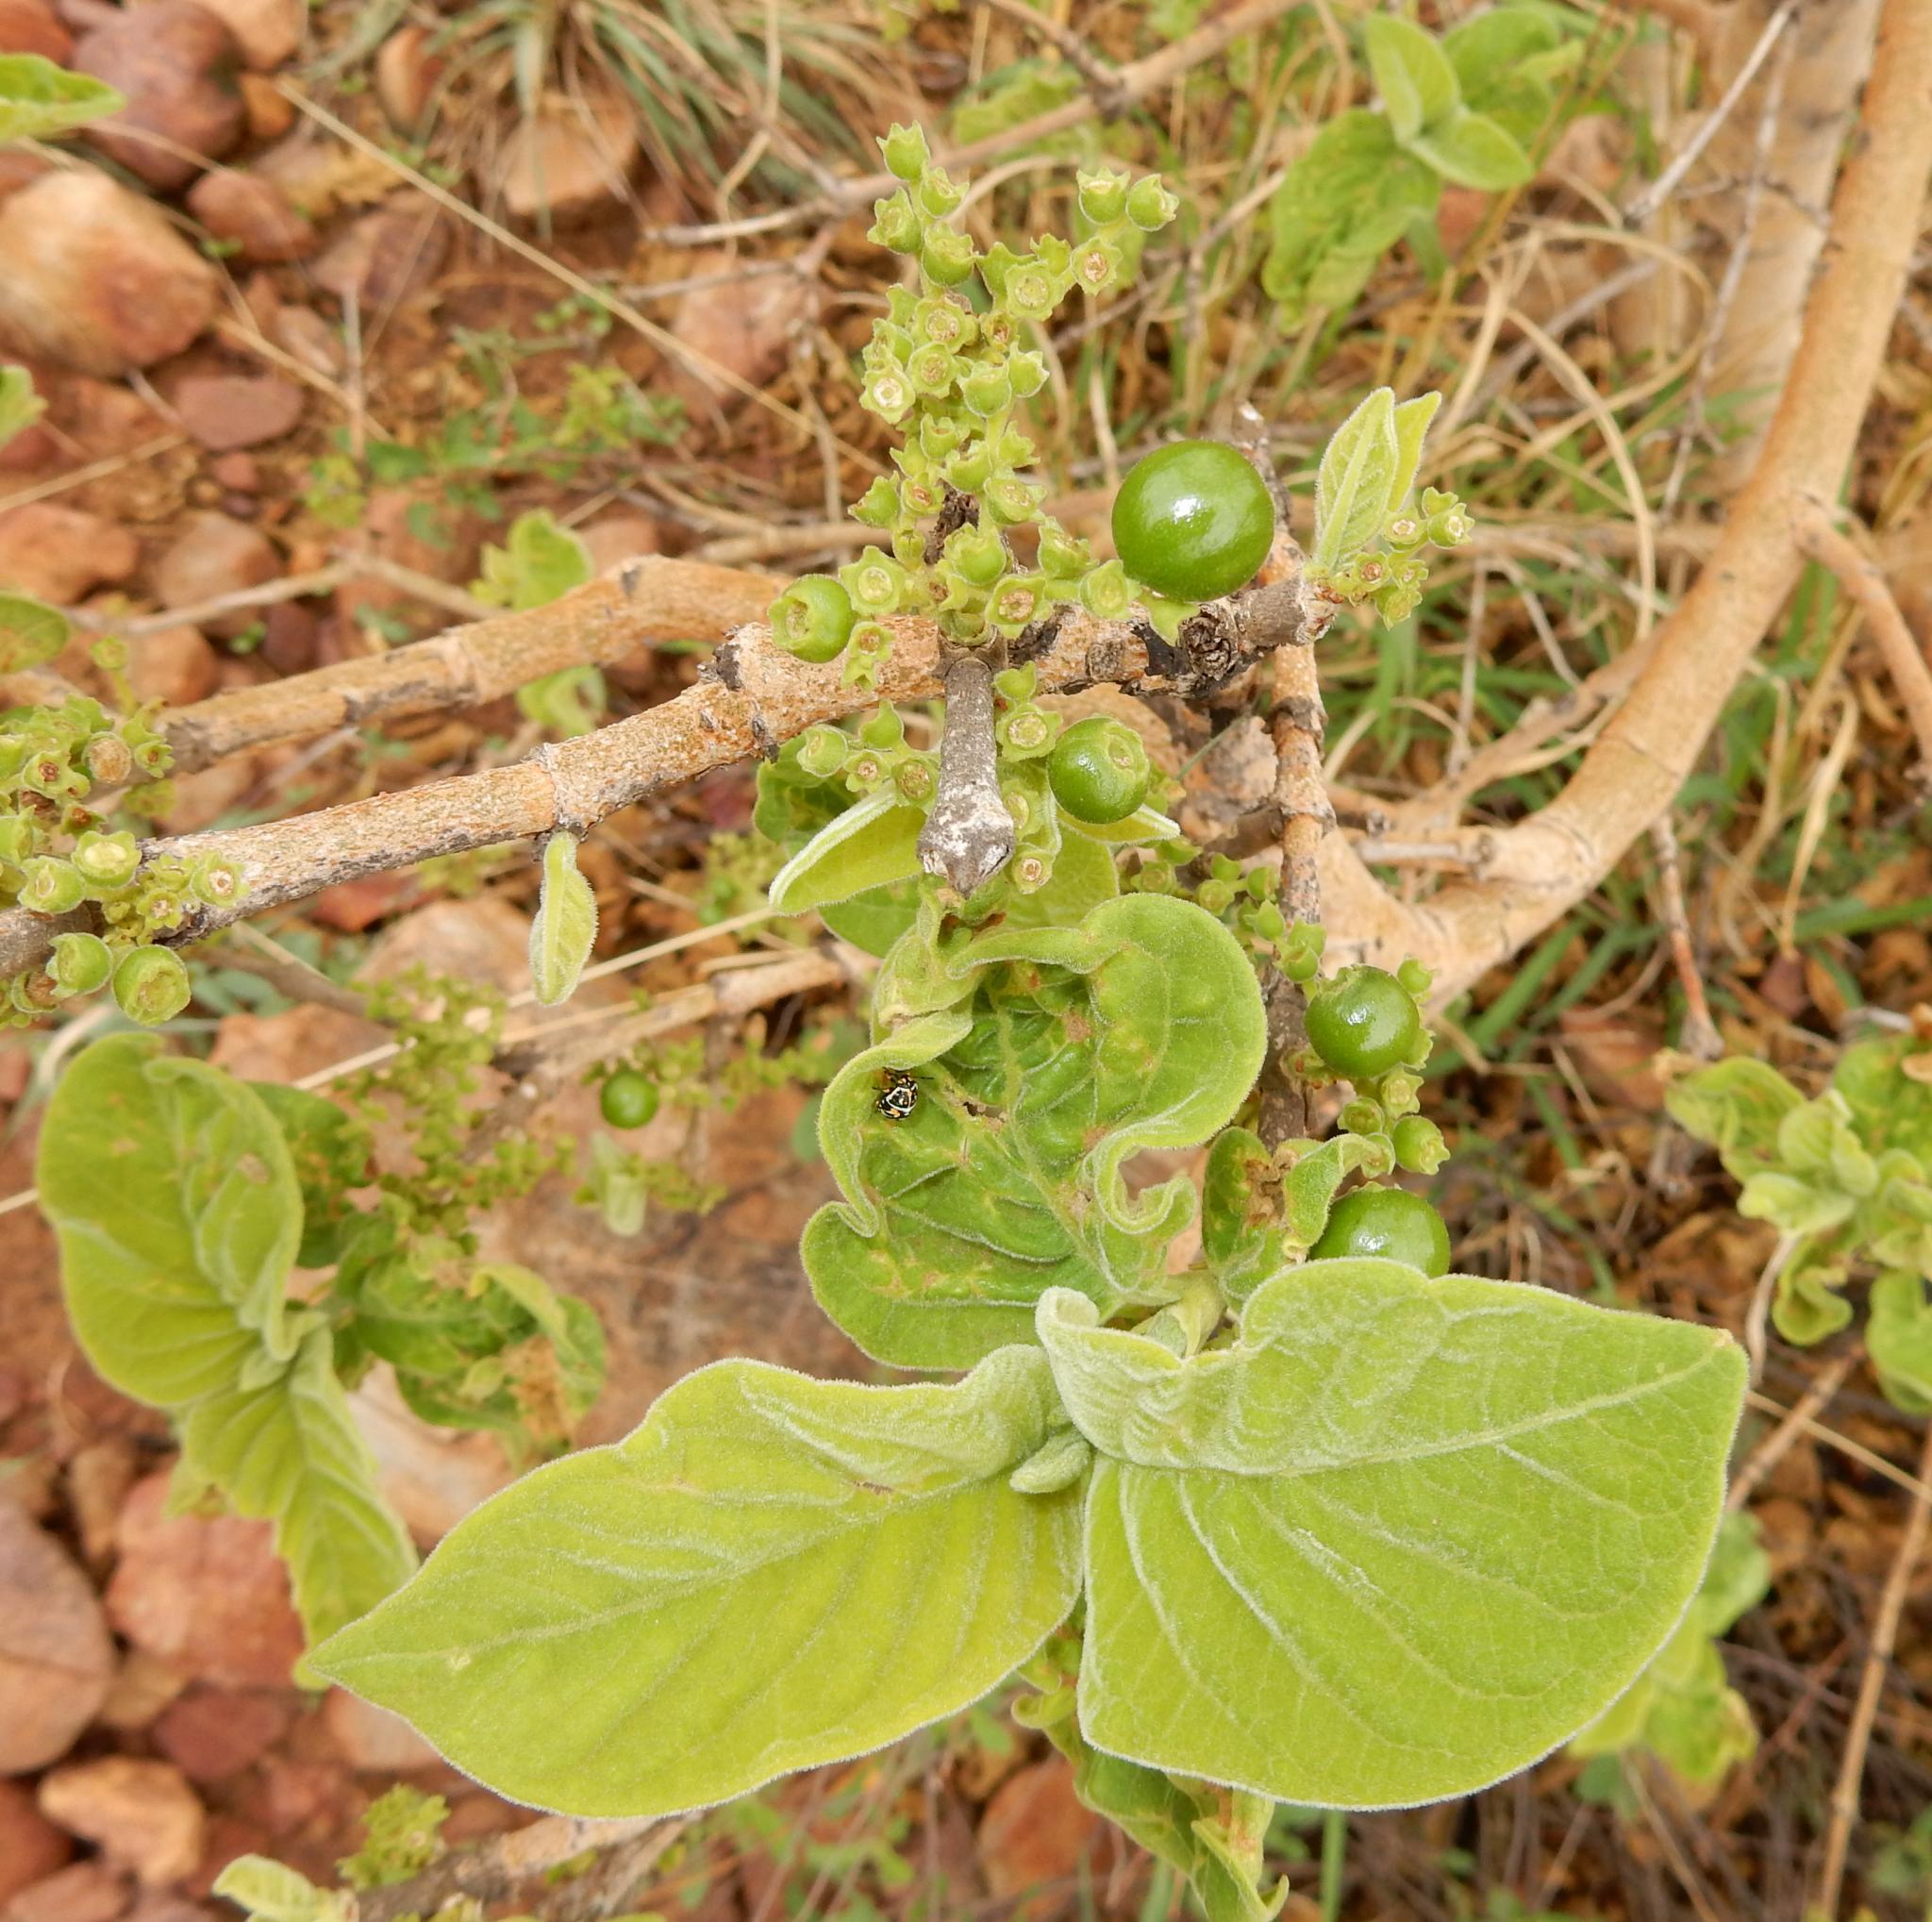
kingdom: Plantae
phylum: Tracheophyta
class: Magnoliopsida
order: Gentianales
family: Rubiaceae
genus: Vangueria
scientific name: Vangueria infausta
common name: Medlar
